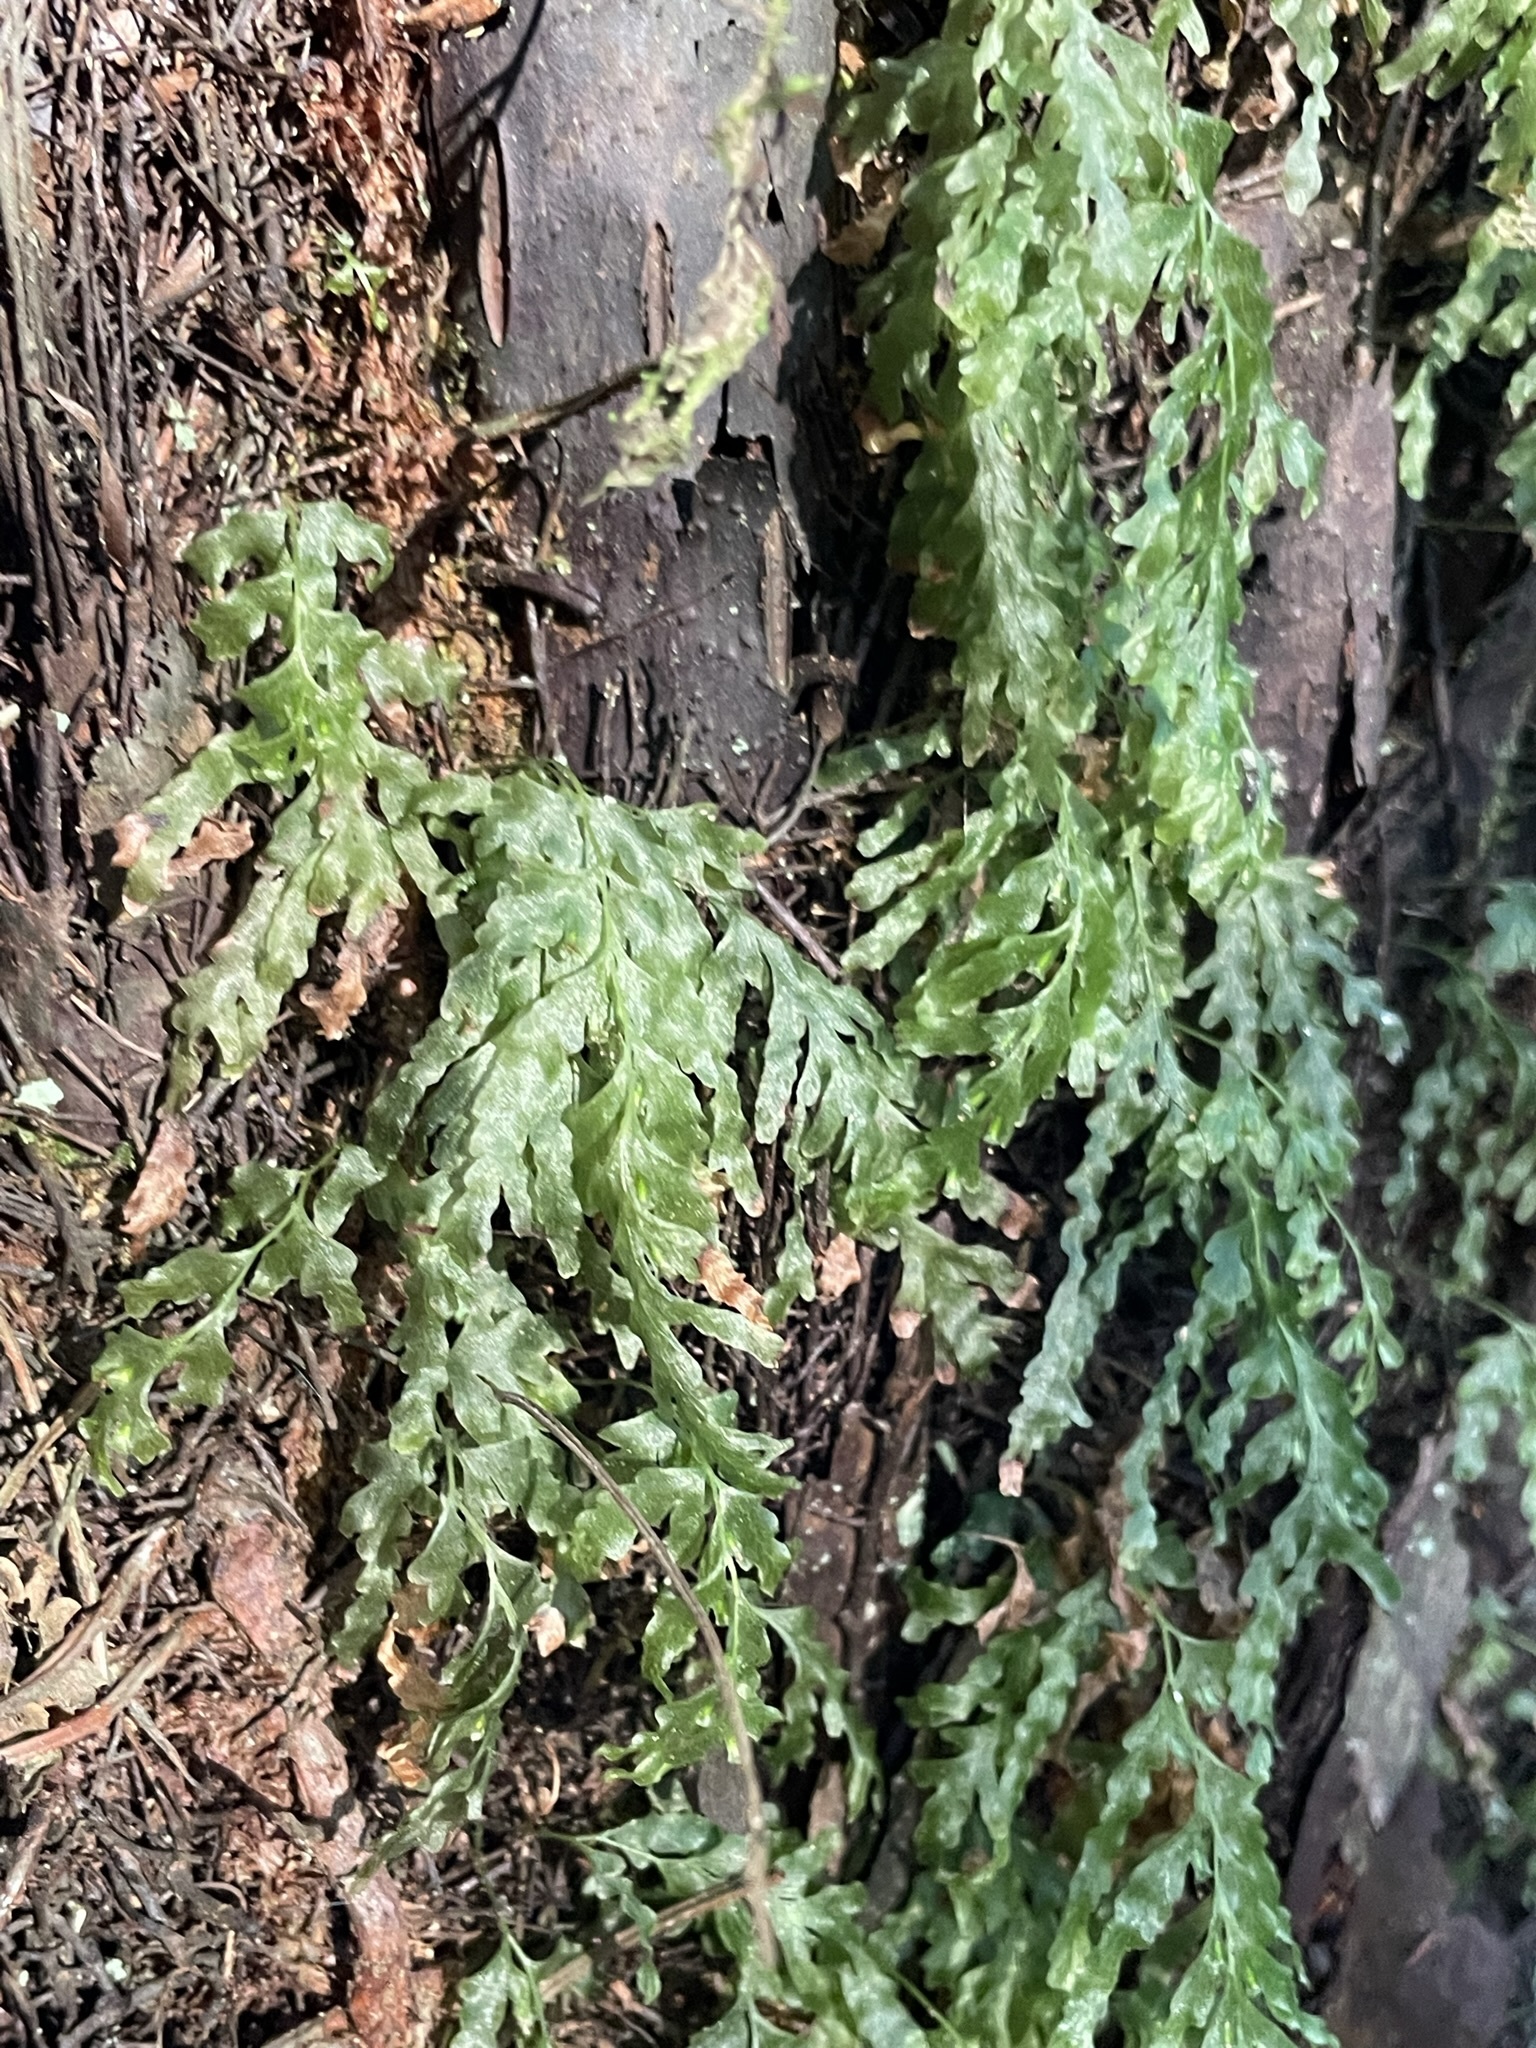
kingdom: Plantae
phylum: Tracheophyta
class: Polypodiopsida
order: Hymenophyllales
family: Hymenophyllaceae
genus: Polyphlebium
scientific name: Polyphlebium venosum
